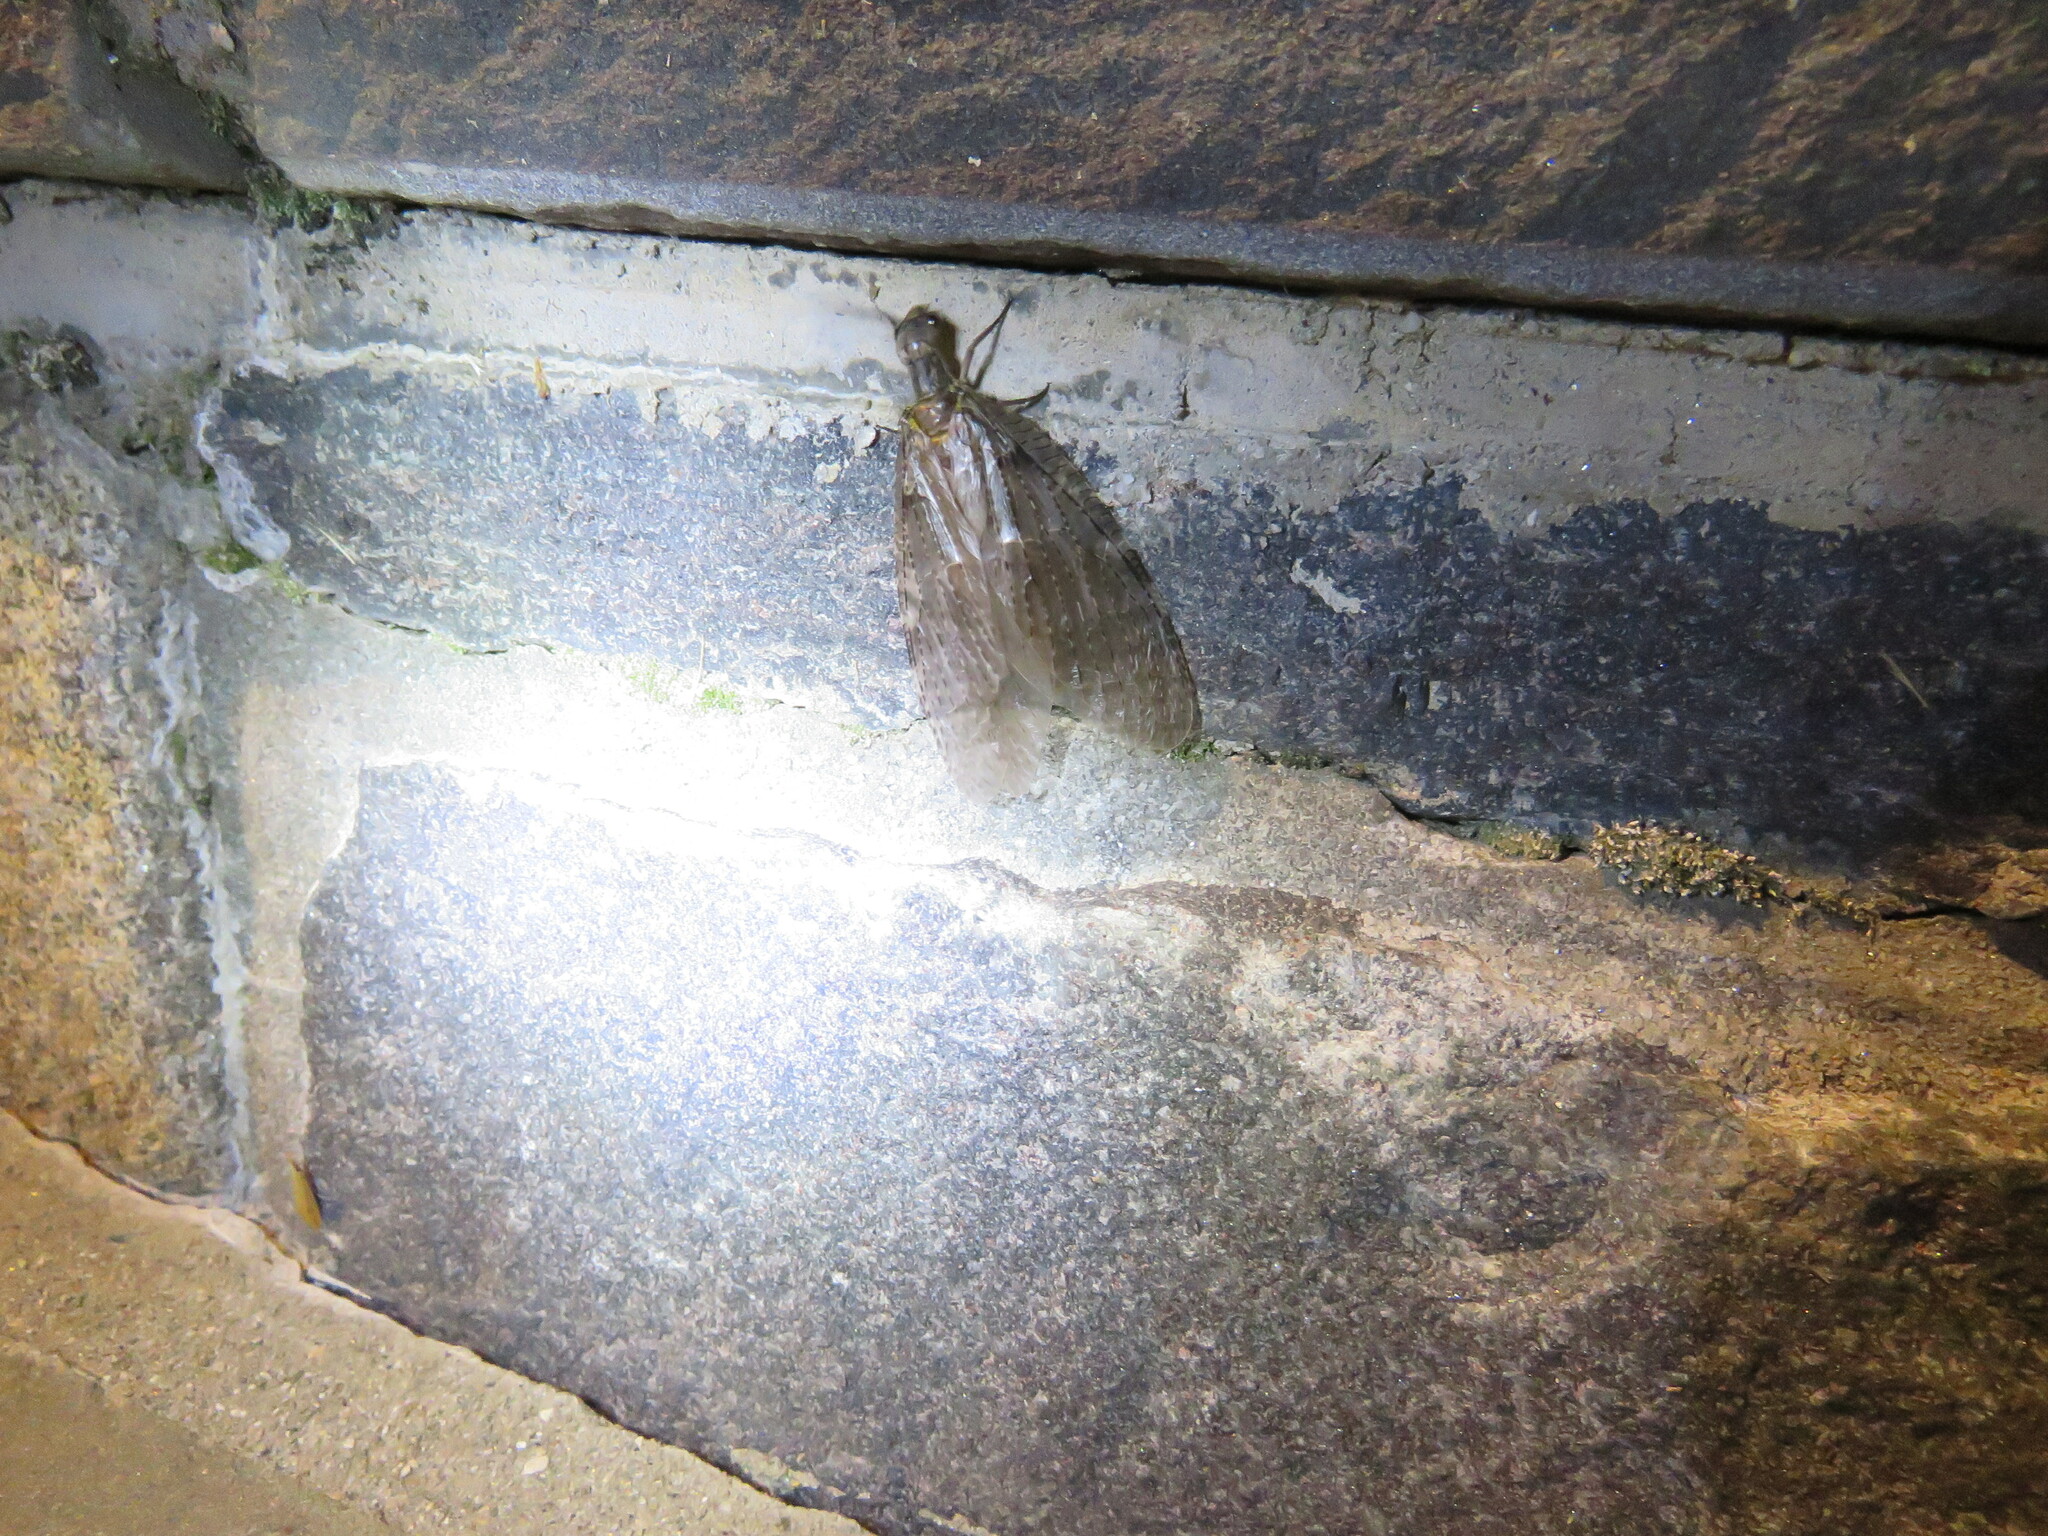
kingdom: Animalia
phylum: Arthropoda
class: Insecta
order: Megaloptera
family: Corydalidae
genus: Chauliodes
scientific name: Chauliodes pectinicornis
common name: Summer fishfly
